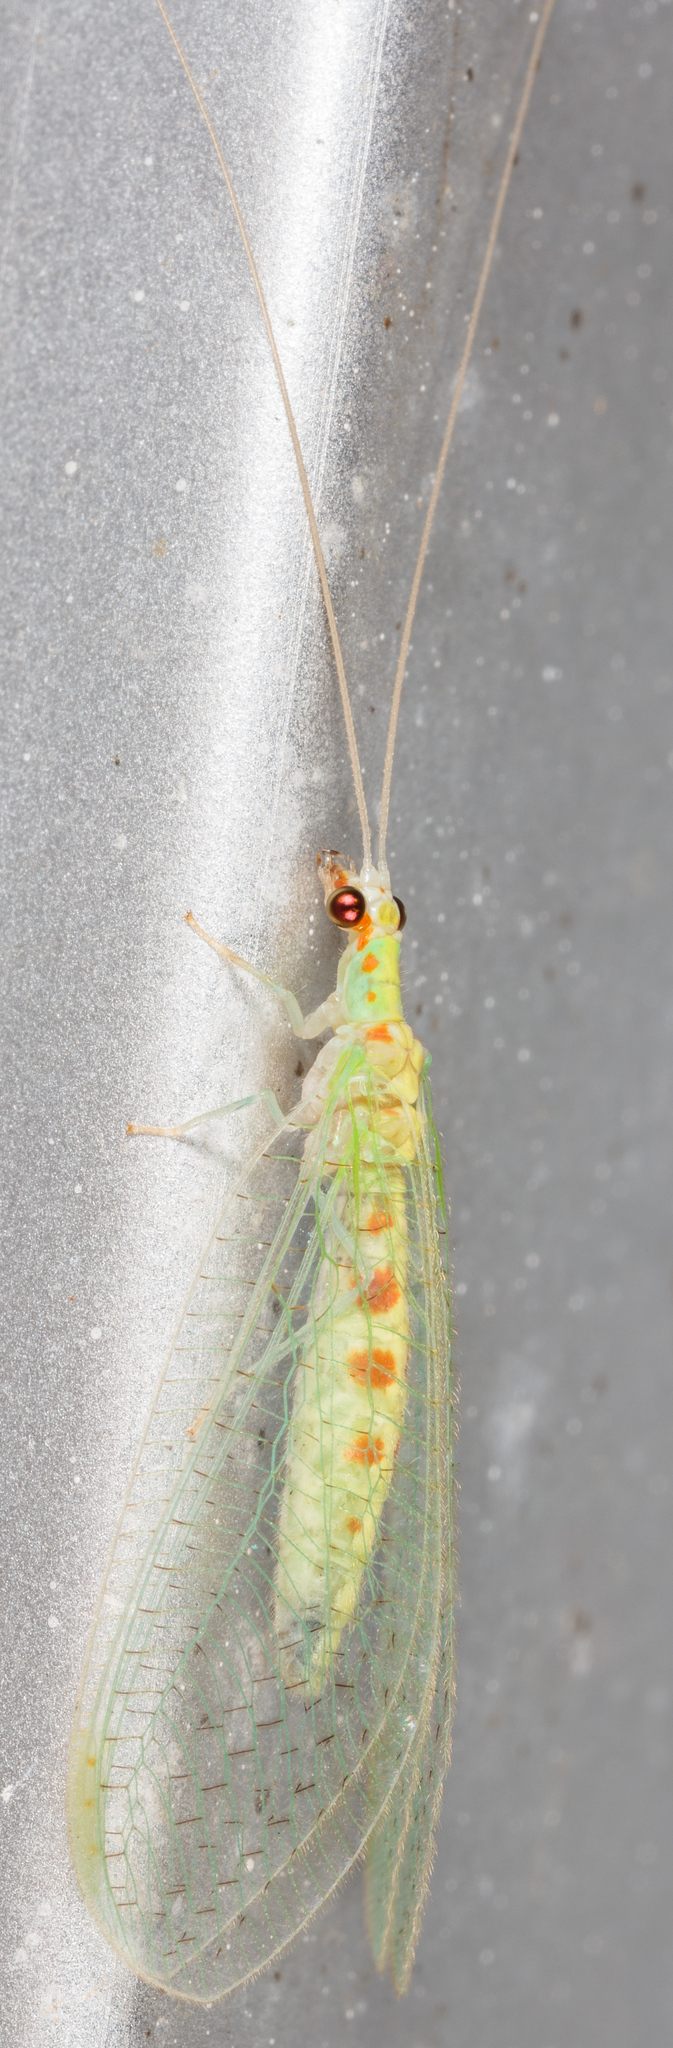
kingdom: Animalia
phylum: Arthropoda
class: Insecta
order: Neuroptera
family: Chrysopidae
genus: Chrysopa
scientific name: Chrysopa quadripunctata
